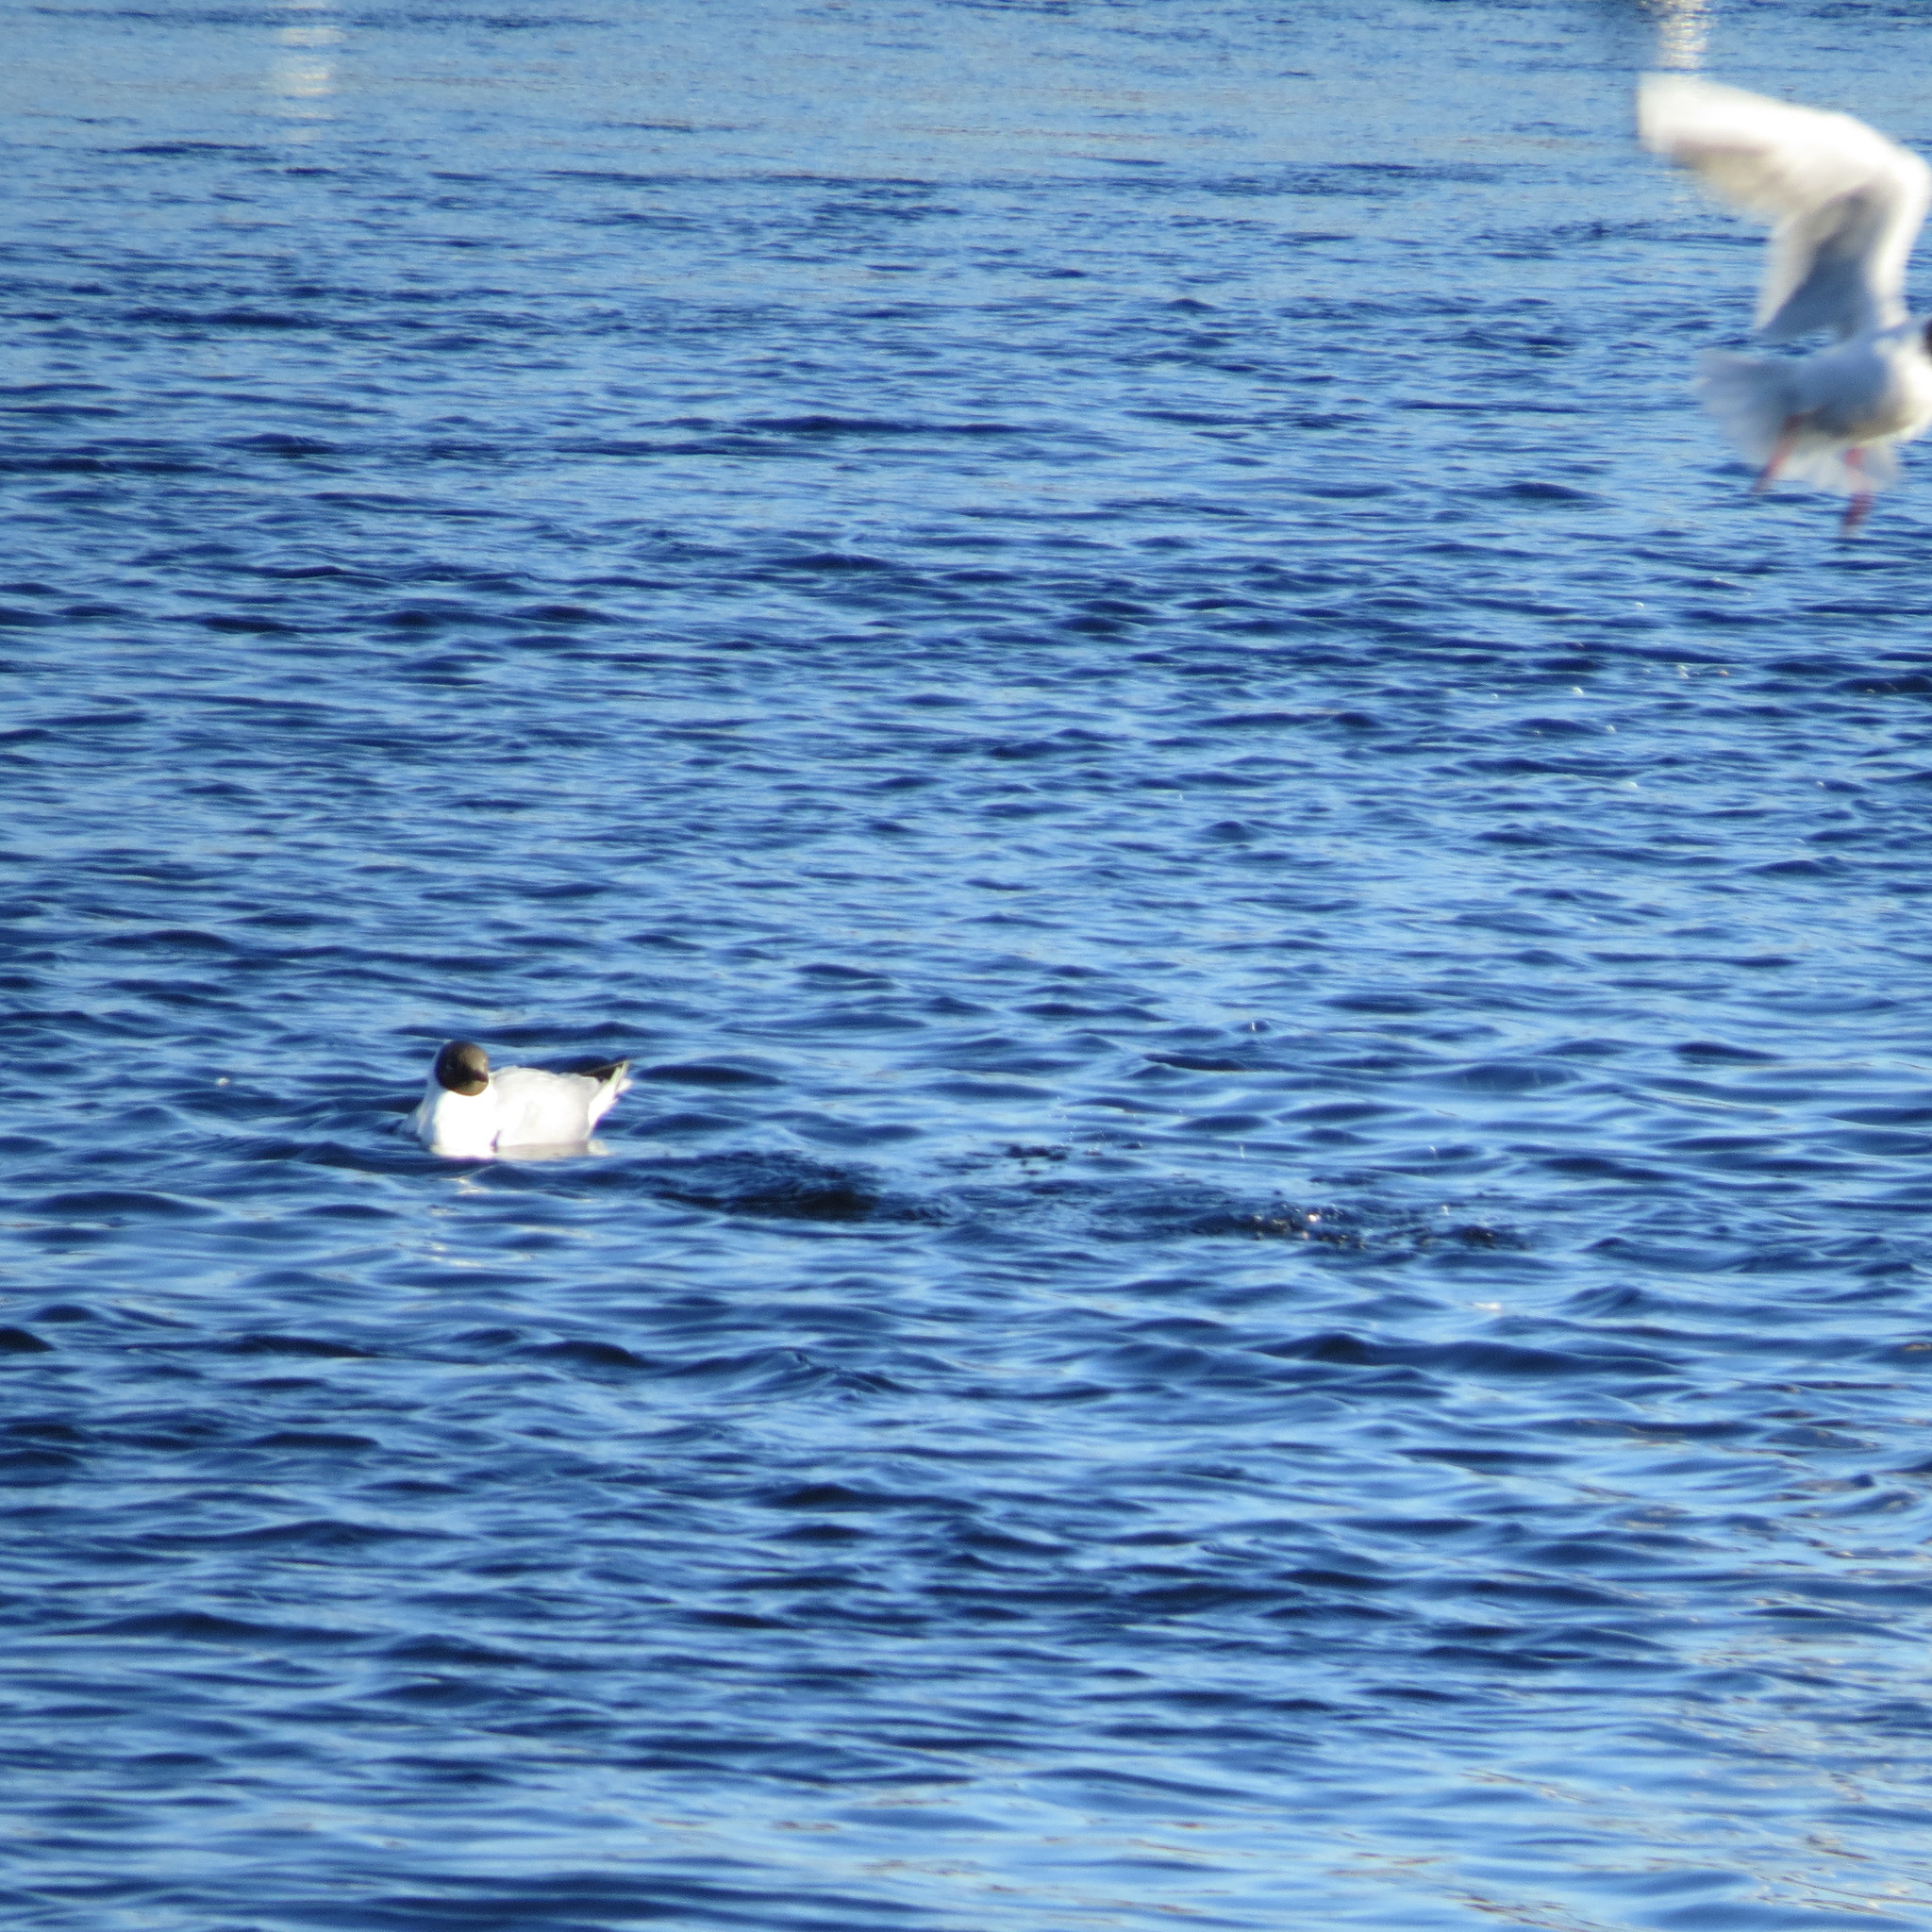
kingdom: Animalia
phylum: Chordata
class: Aves
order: Charadriiformes
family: Laridae
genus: Chroicocephalus
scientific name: Chroicocephalus ridibundus
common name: Black-headed gull
